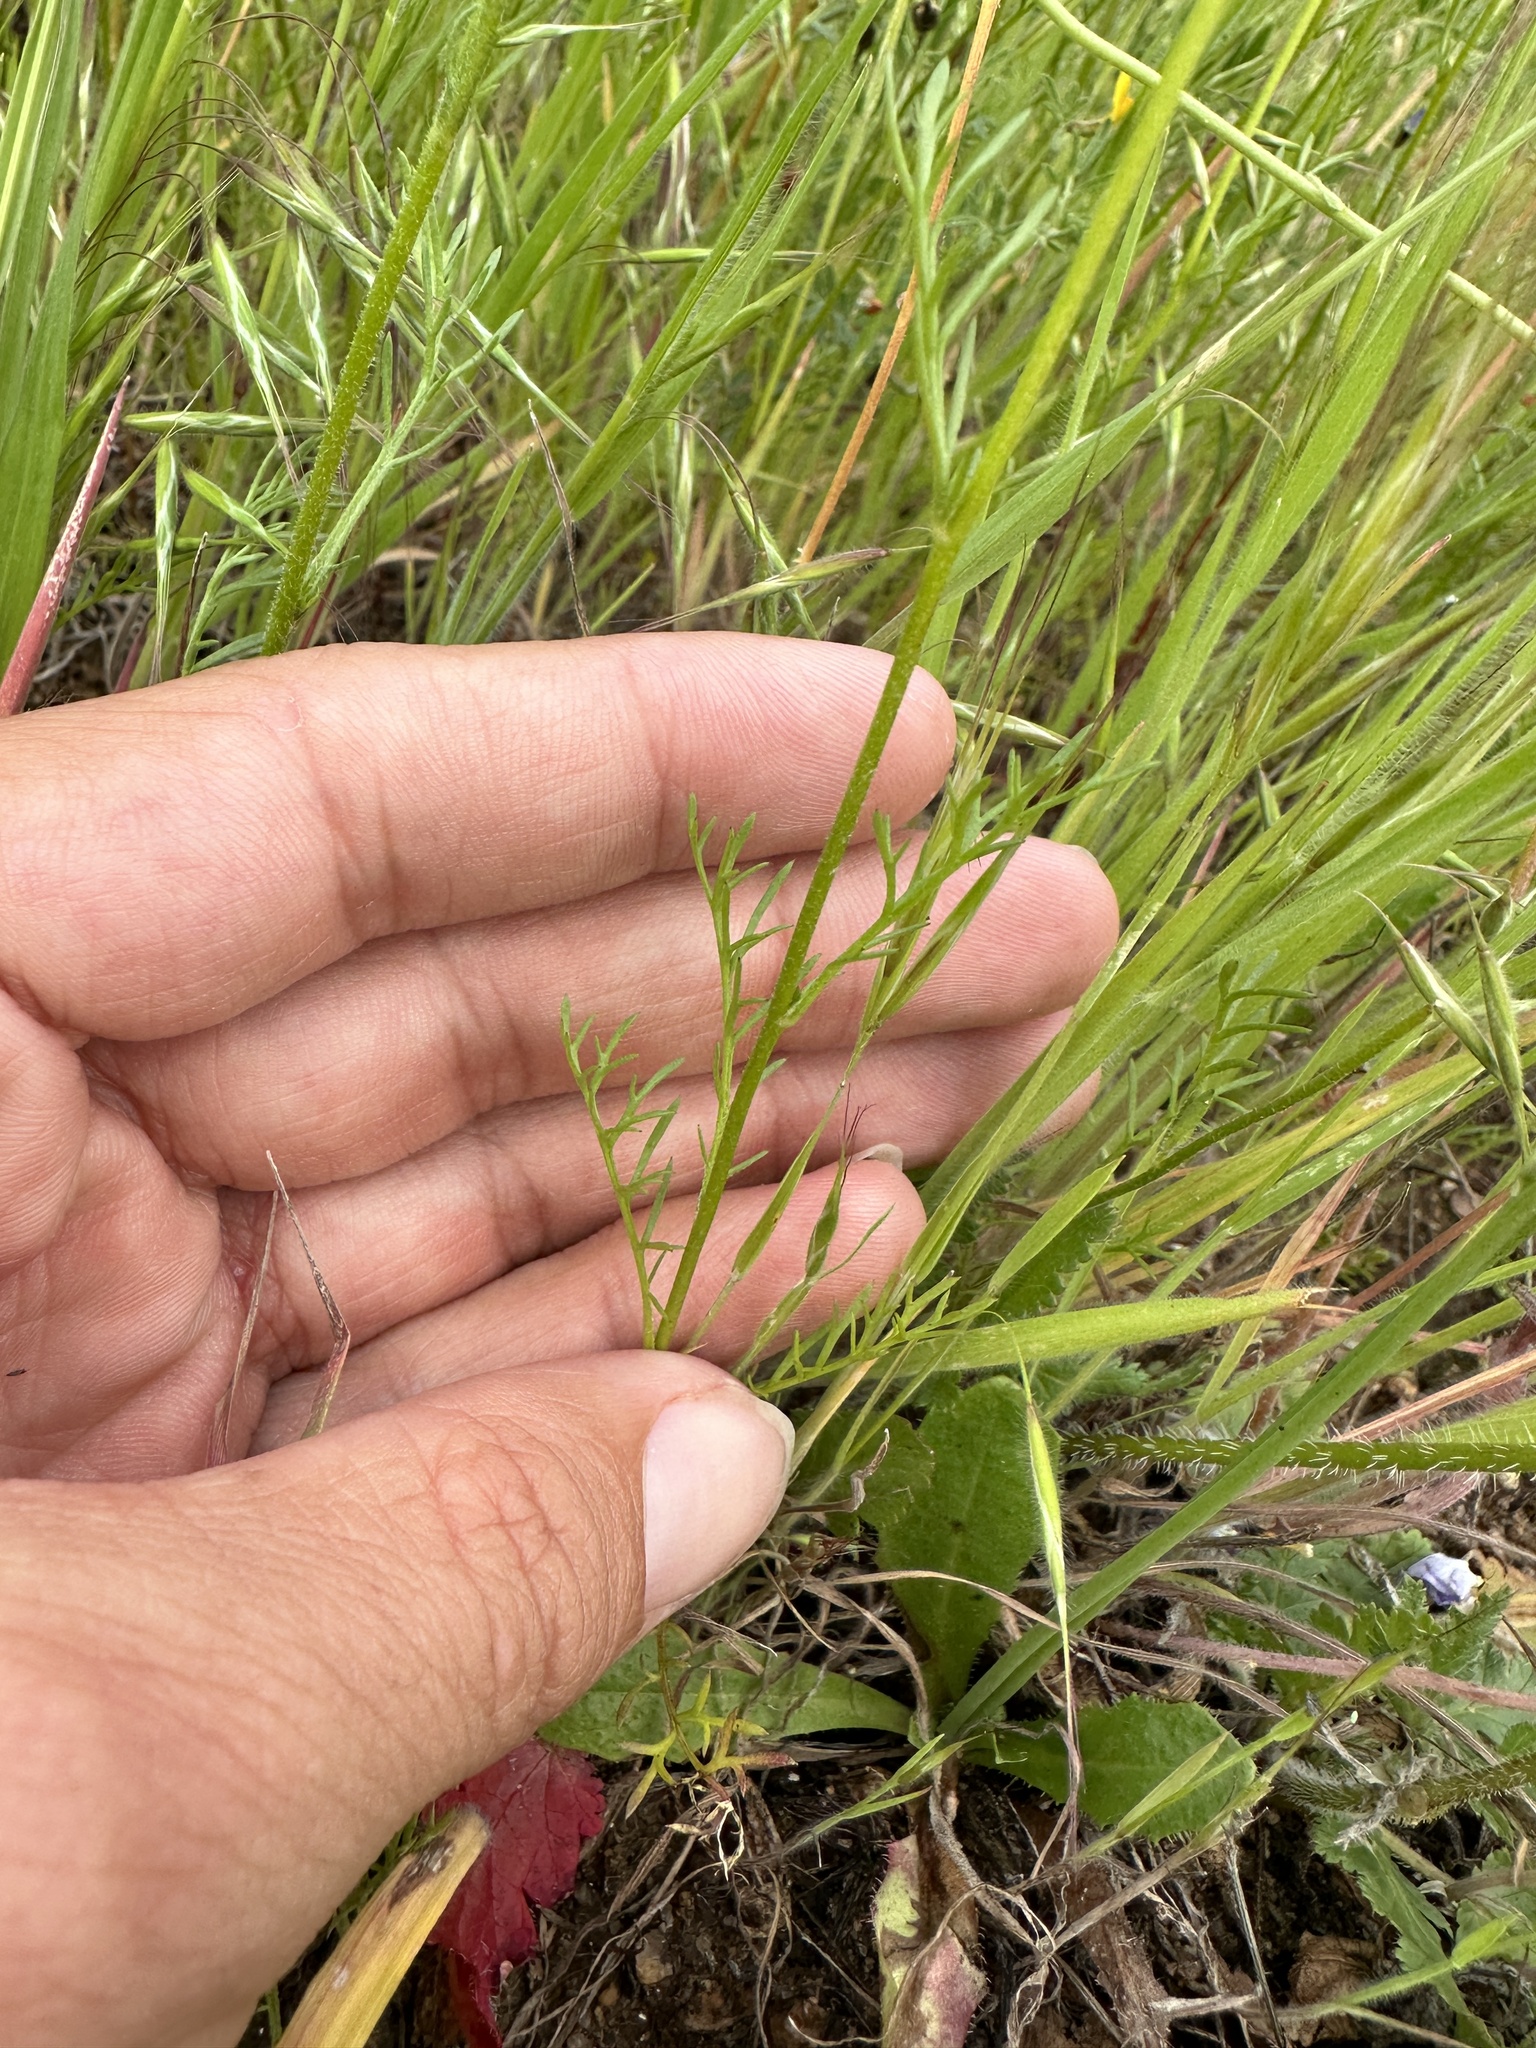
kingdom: Plantae
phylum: Tracheophyta
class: Magnoliopsida
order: Ericales
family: Polemoniaceae
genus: Gilia
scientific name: Gilia tricolor
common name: Bird's-eyes
